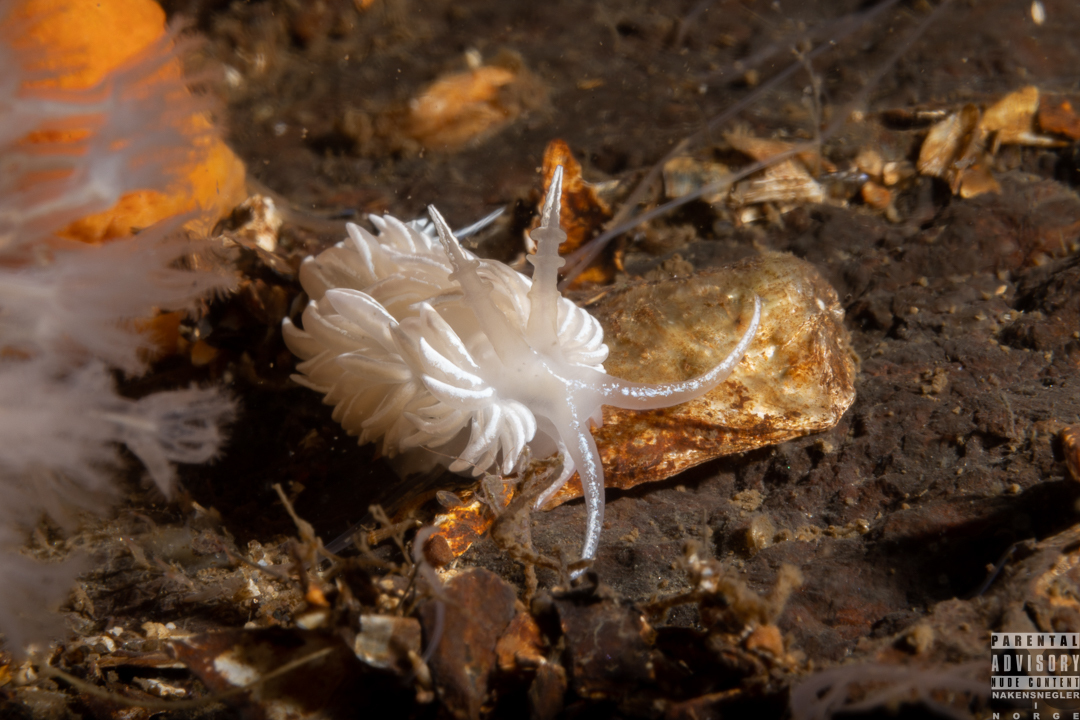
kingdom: Animalia
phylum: Mollusca
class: Gastropoda
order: Nudibranchia
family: Facelinidae
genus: Favorinus
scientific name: Favorinus blianus
